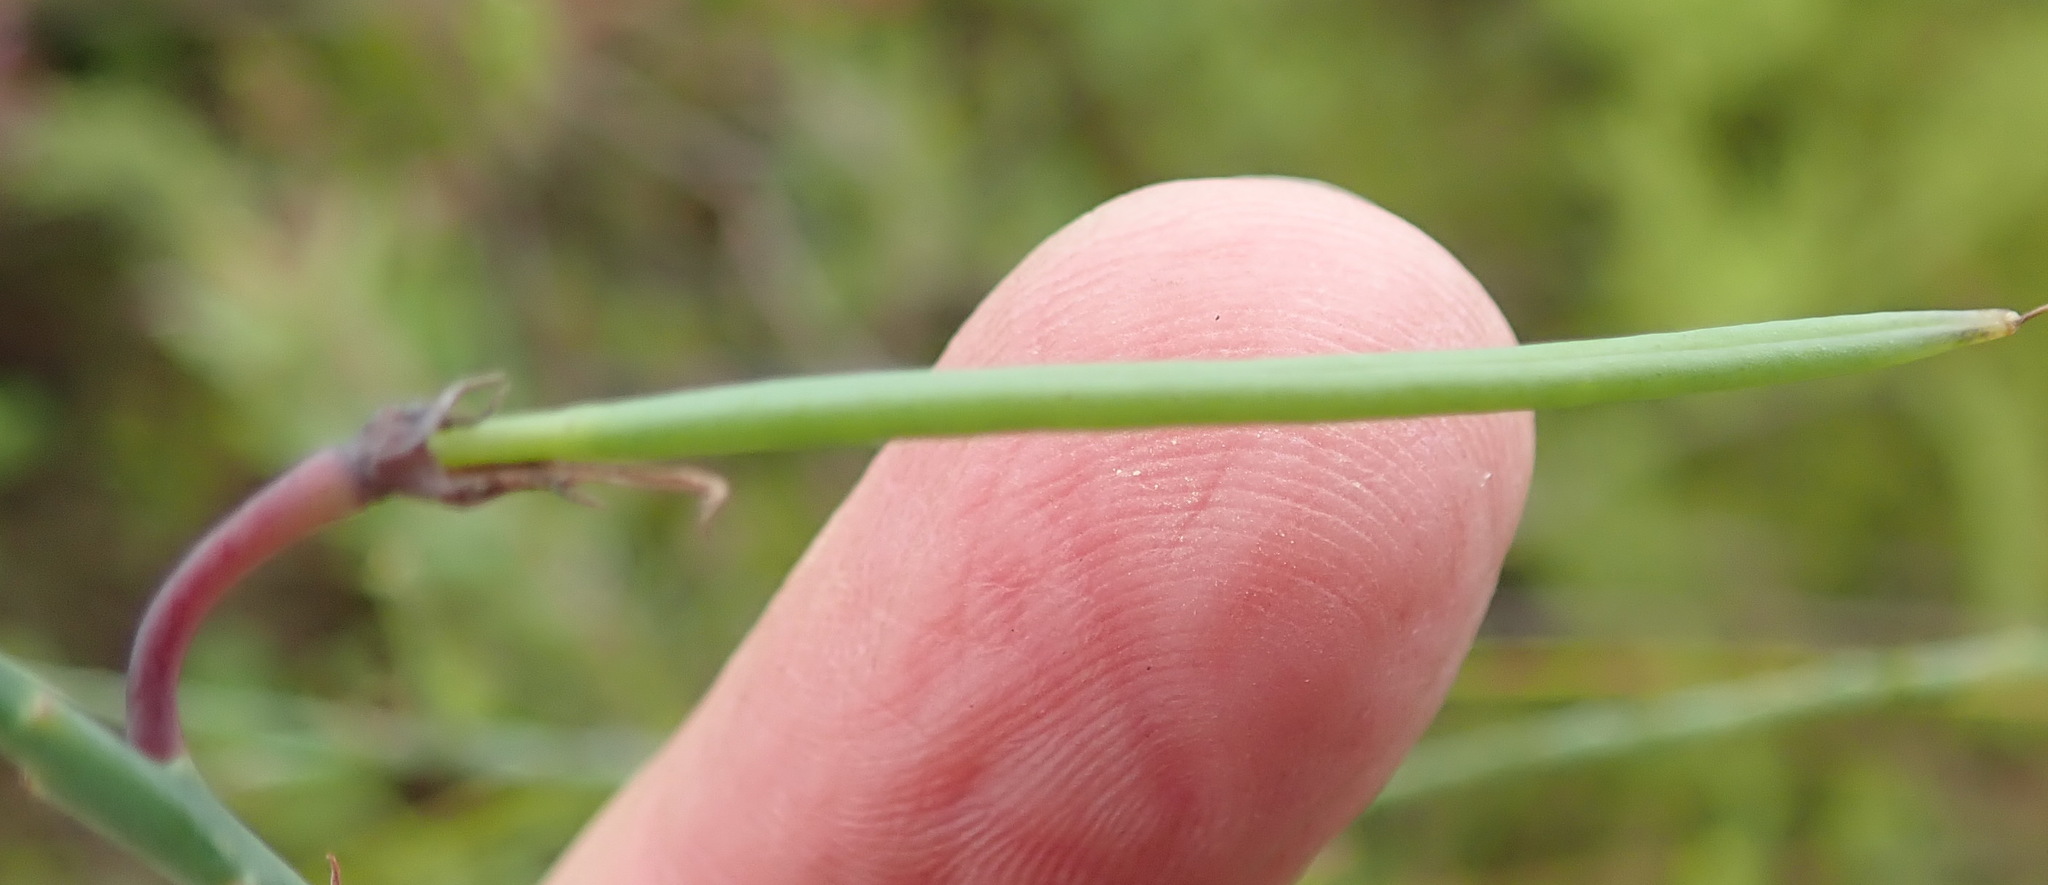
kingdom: Plantae
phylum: Tracheophyta
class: Magnoliopsida
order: Fabales
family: Fabaceae
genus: Indigofera
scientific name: Indigofera filifolia
